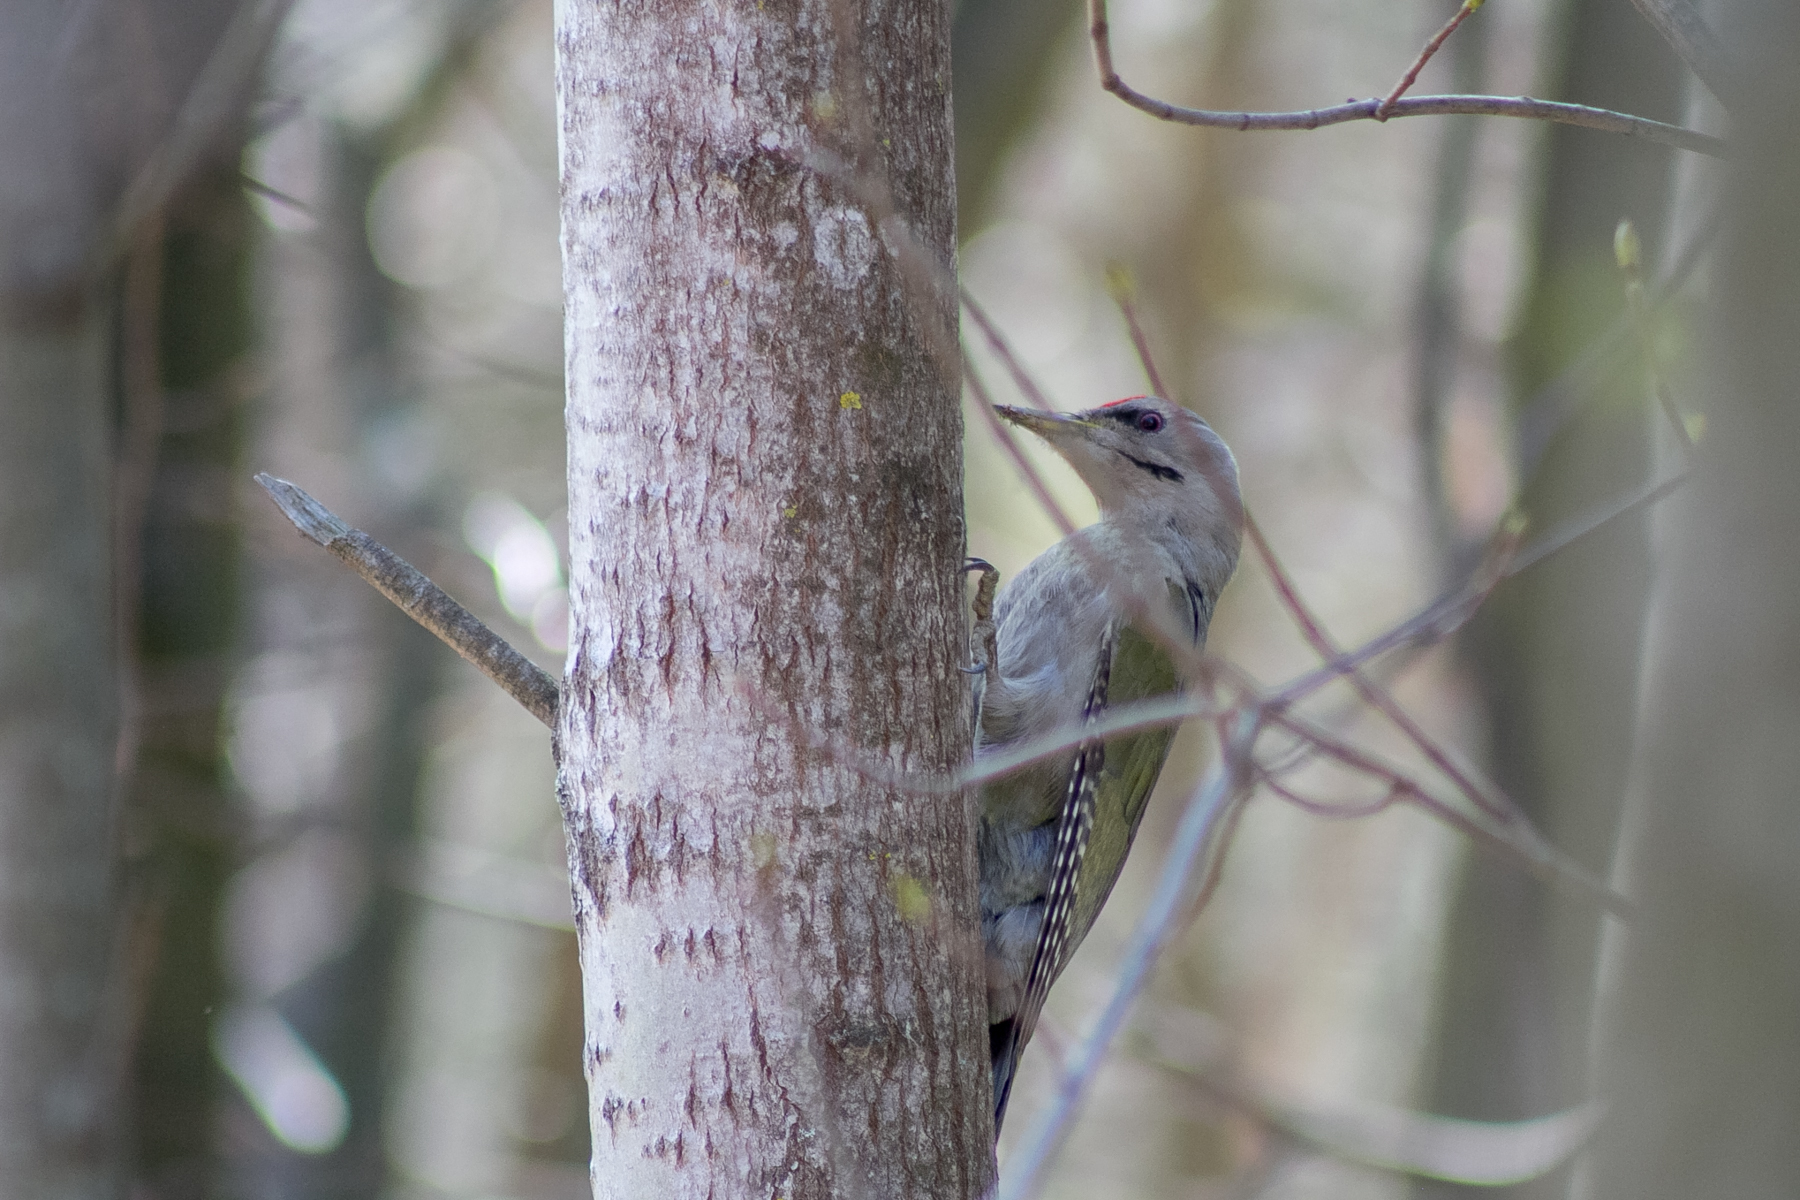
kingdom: Animalia
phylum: Chordata
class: Aves
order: Piciformes
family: Picidae
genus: Picus
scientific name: Picus canus
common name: Grey-headed woodpecker
